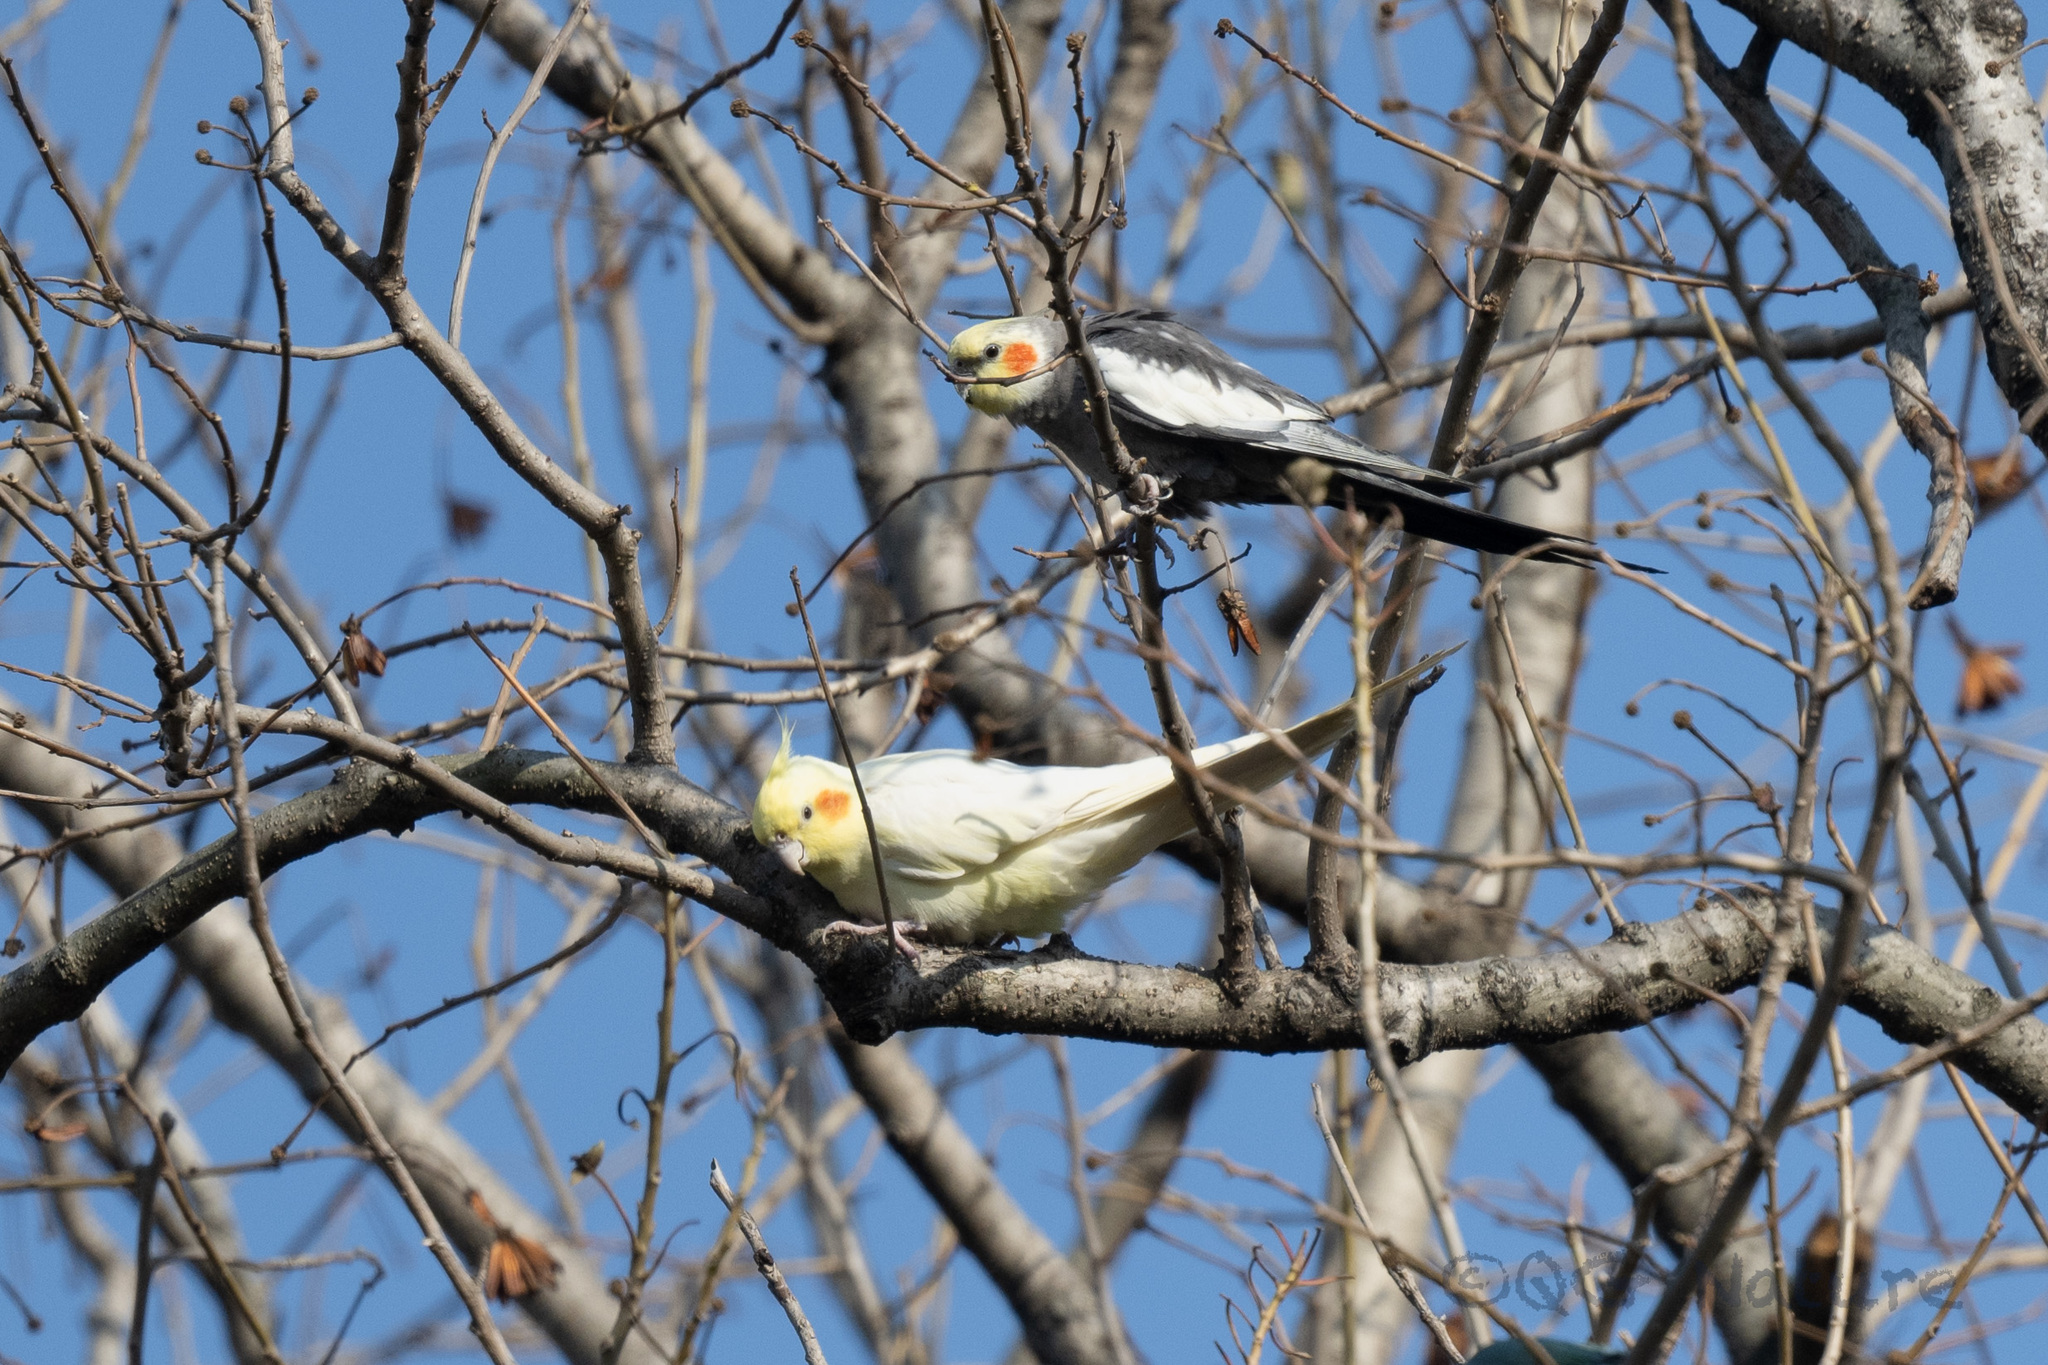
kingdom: Animalia
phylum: Chordata
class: Aves
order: Psittaciformes
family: Psittacidae
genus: Nymphicus
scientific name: Nymphicus hollandicus
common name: Cockatiel
